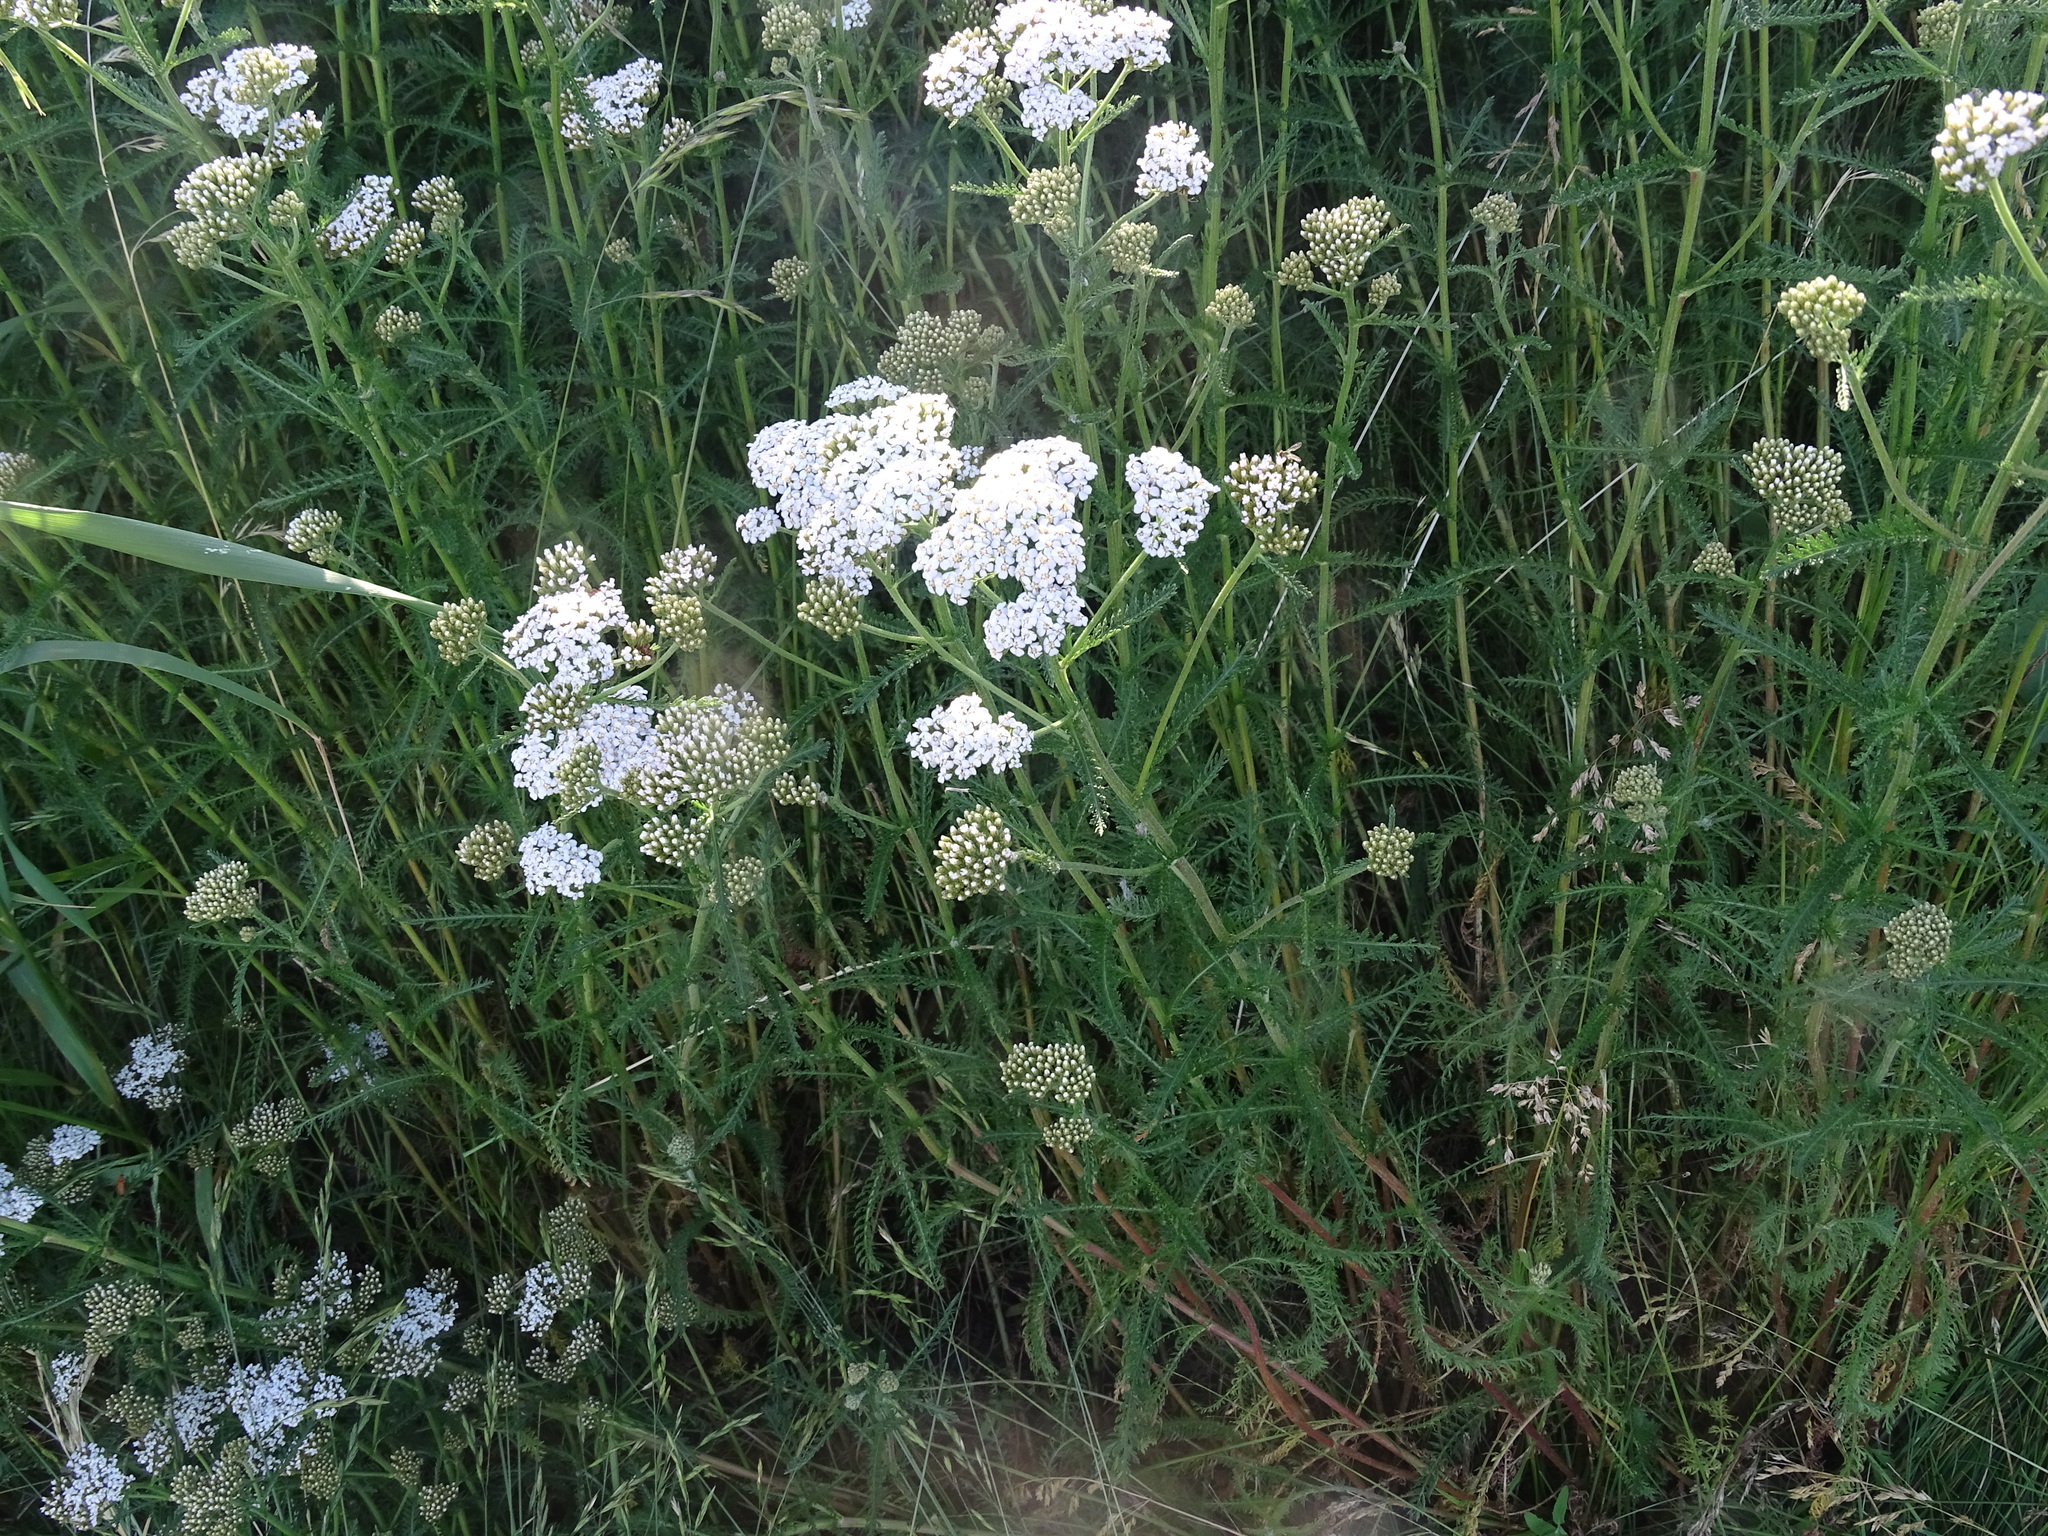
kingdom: Plantae
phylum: Tracheophyta
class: Magnoliopsida
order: Asterales
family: Asteraceae
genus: Achillea
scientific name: Achillea millefolium
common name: Yarrow
